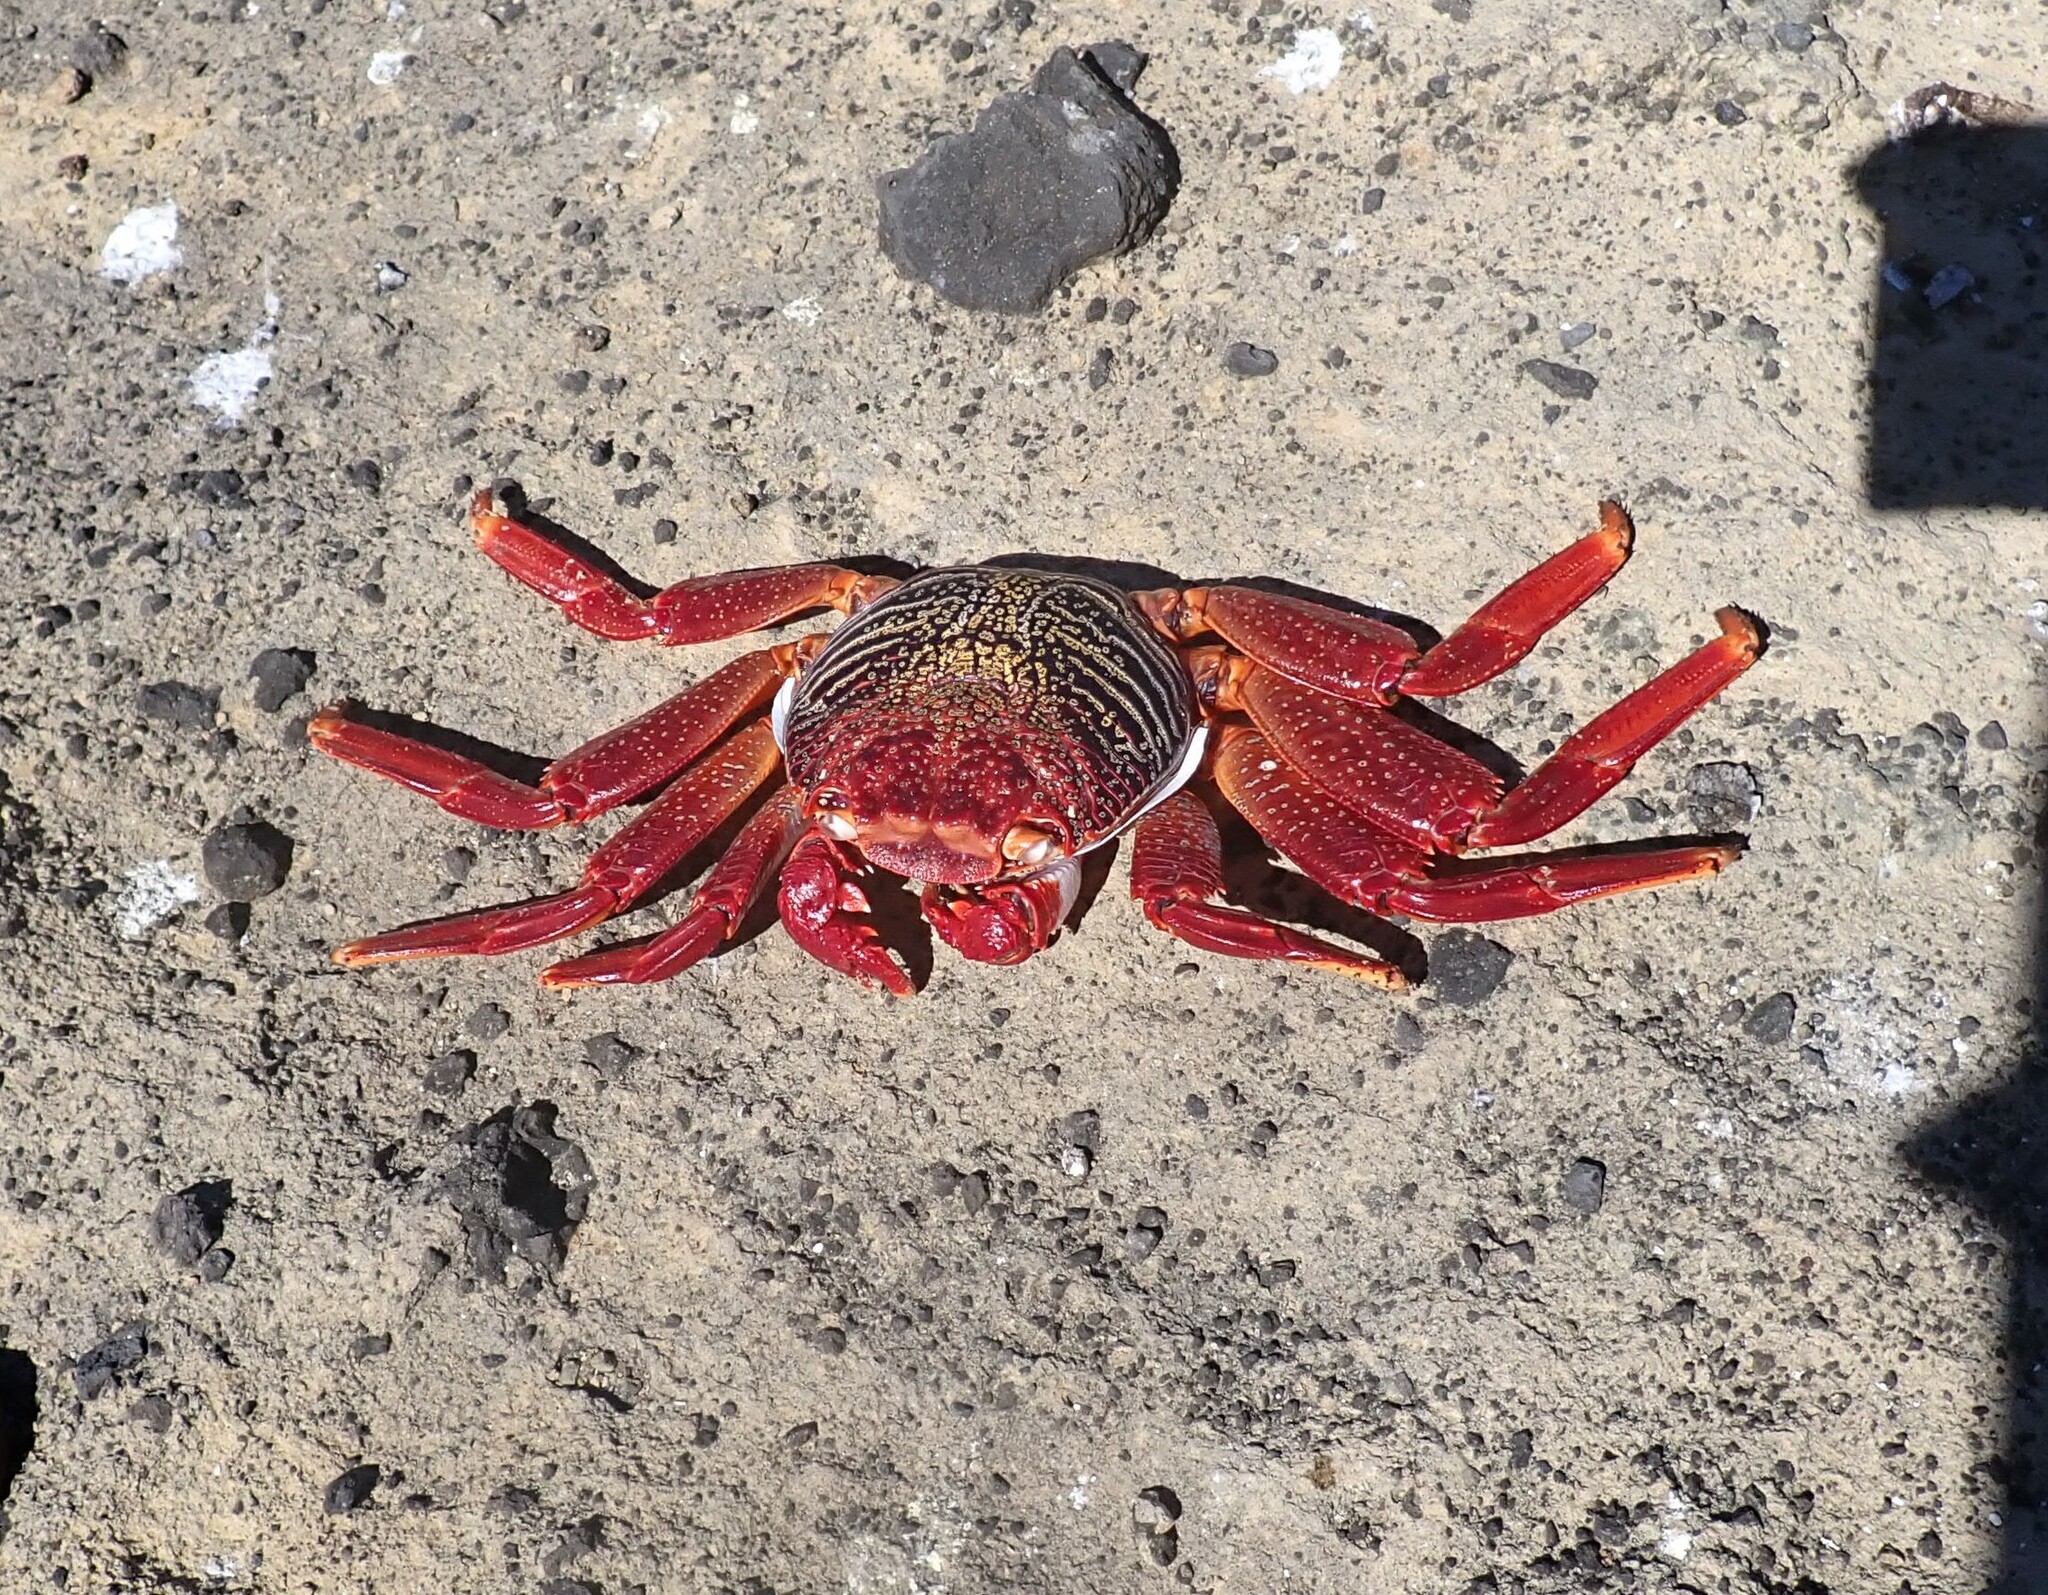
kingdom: Animalia
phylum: Arthropoda
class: Malacostraca
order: Decapoda
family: Grapsidae
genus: Grapsus
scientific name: Grapsus adscensionis
